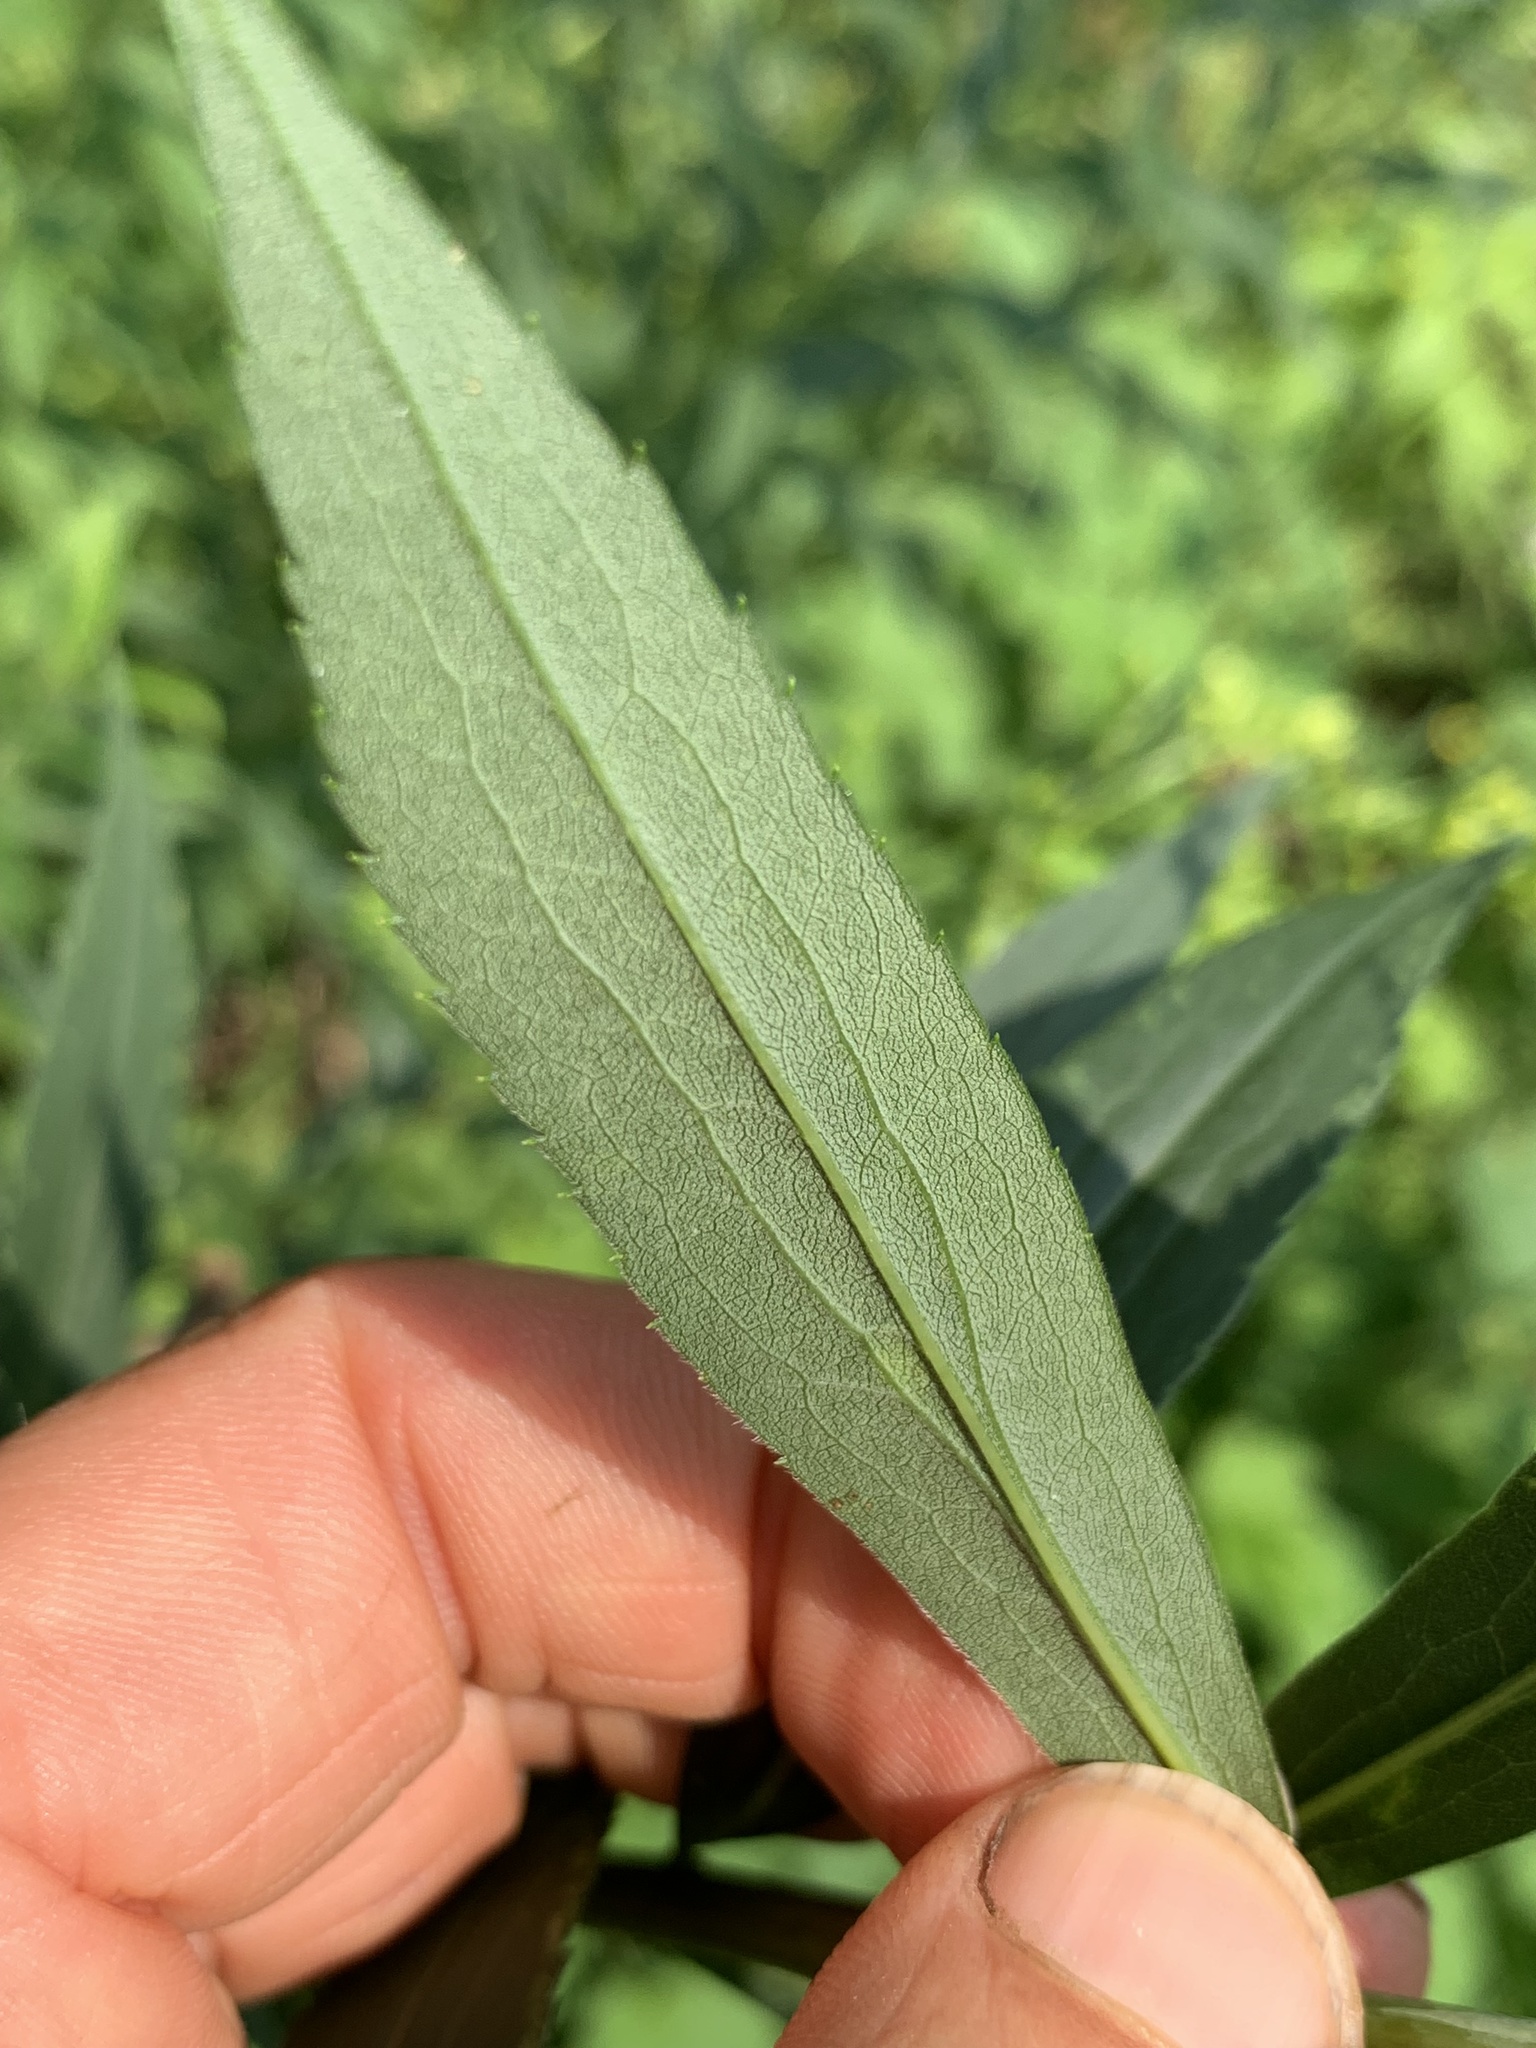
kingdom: Plantae
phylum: Tracheophyta
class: Magnoliopsida
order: Asterales
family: Asteraceae
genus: Solidago
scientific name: Solidago gigantea
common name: Giant goldenrod
